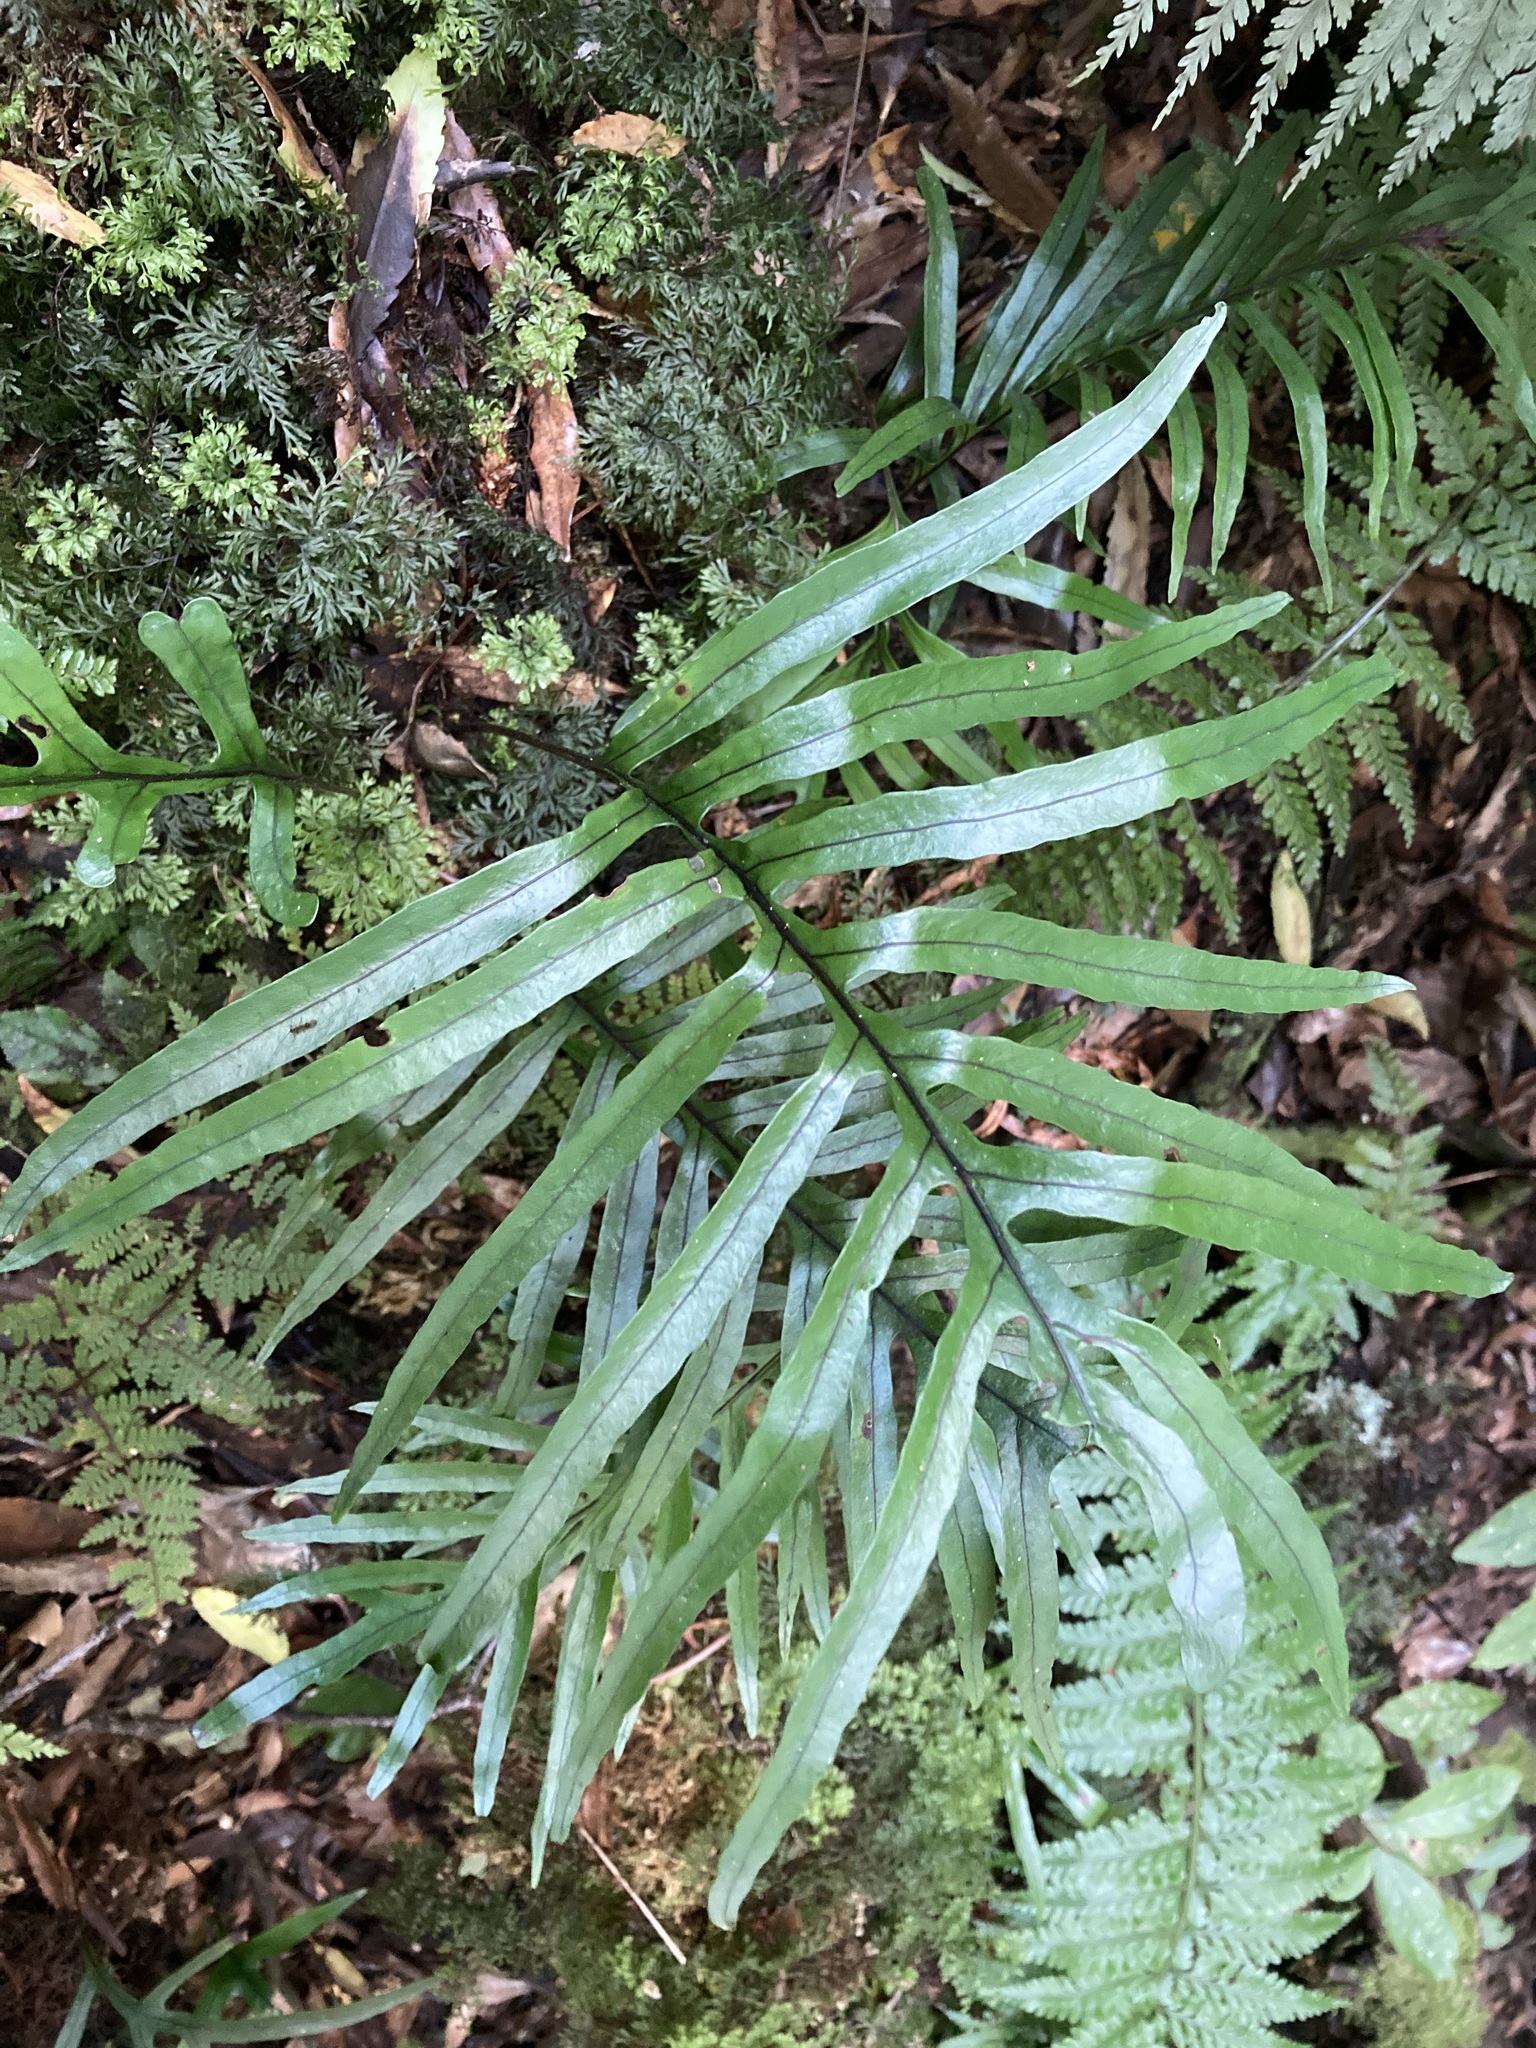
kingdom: Plantae
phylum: Tracheophyta
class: Polypodiopsida
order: Polypodiales
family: Polypodiaceae
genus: Lecanopteris
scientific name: Lecanopteris novae-zealandiae
